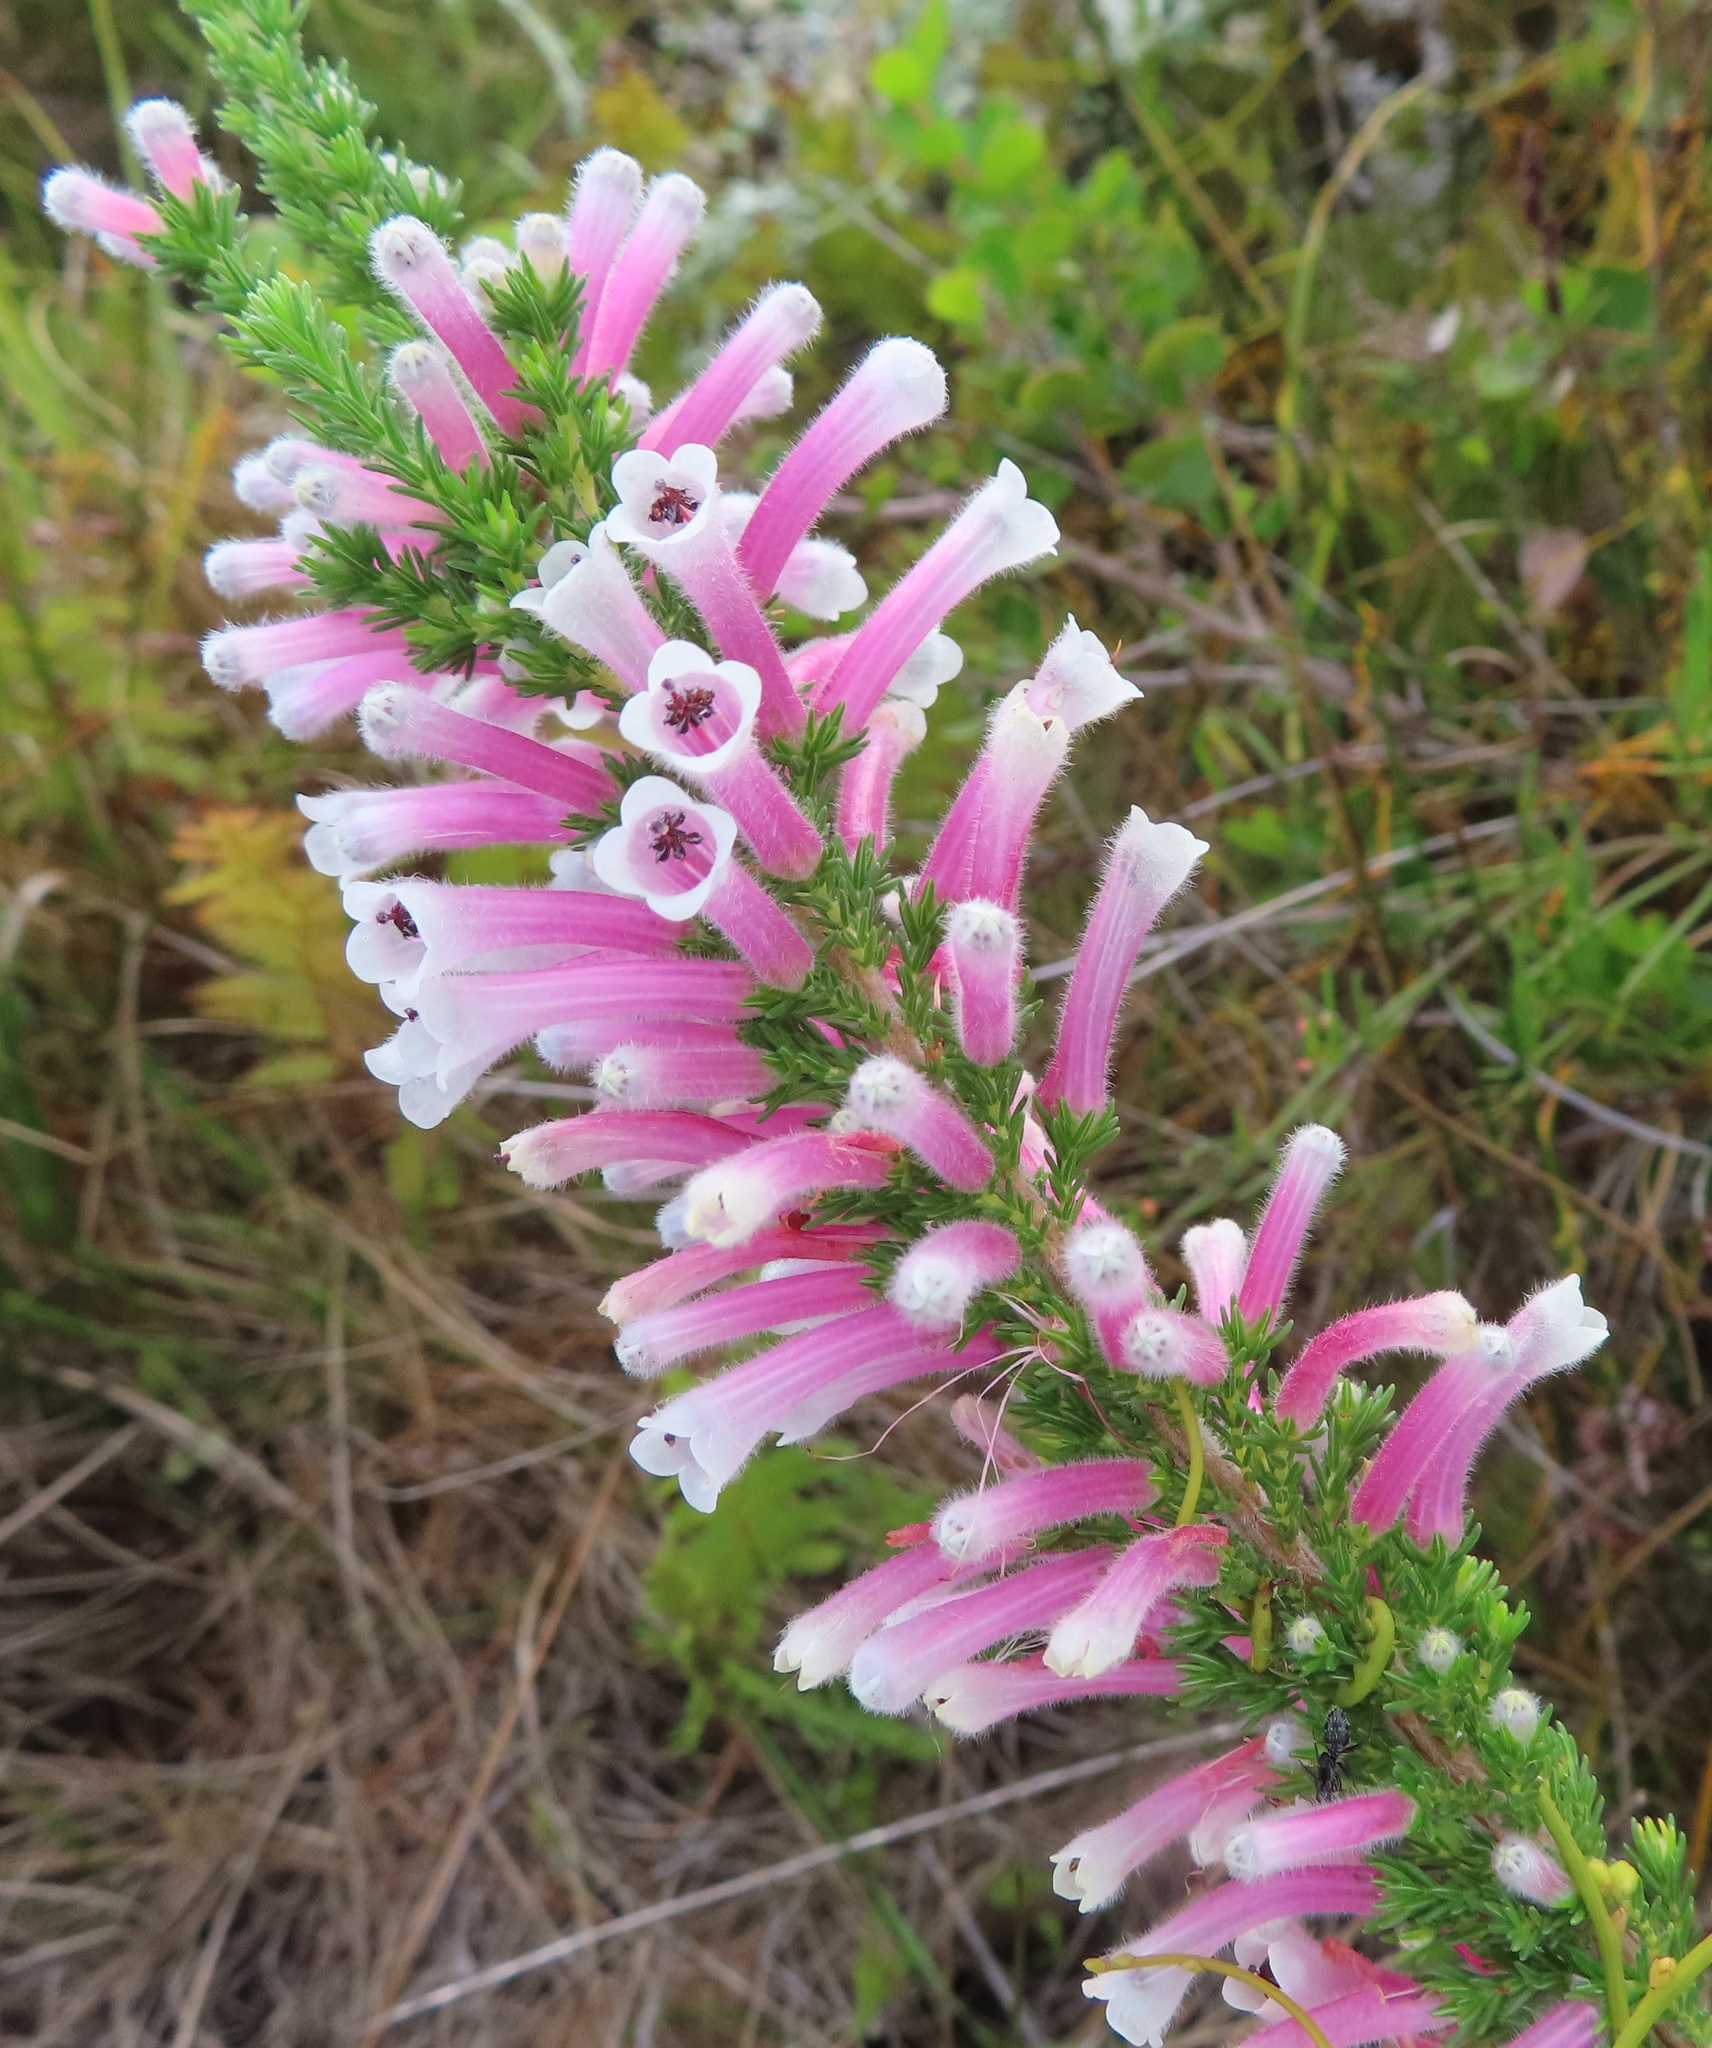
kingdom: Plantae
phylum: Tracheophyta
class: Magnoliopsida
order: Ericales
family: Ericaceae
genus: Erica
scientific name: Erica perspicua
